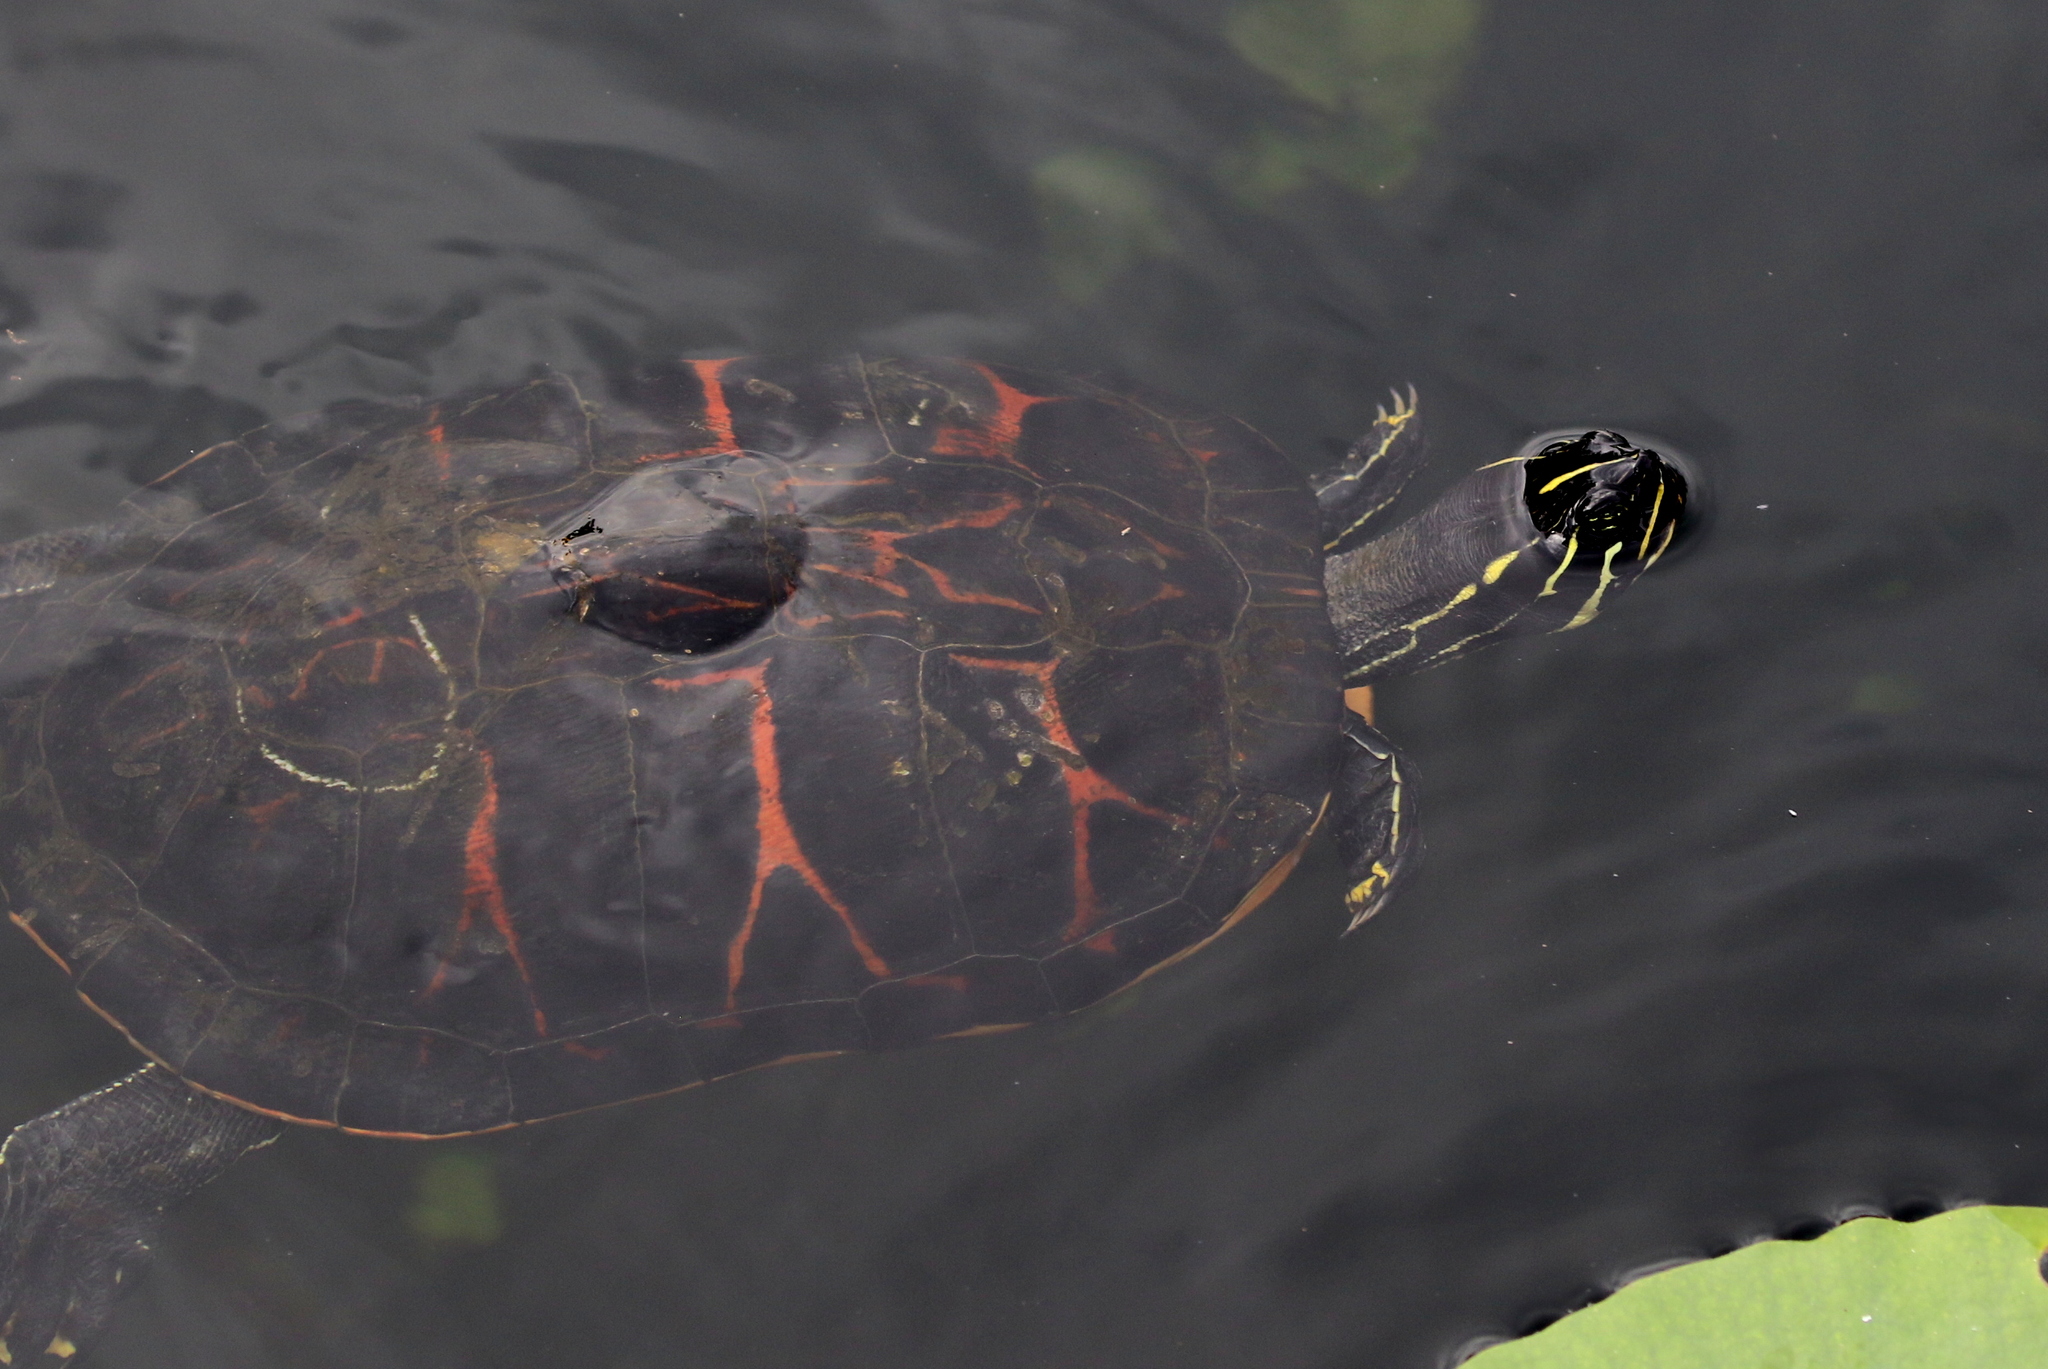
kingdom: Animalia
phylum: Chordata
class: Testudines
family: Emydidae
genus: Pseudemys
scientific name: Pseudemys nelsoni
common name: Florida red-bellied turtle
